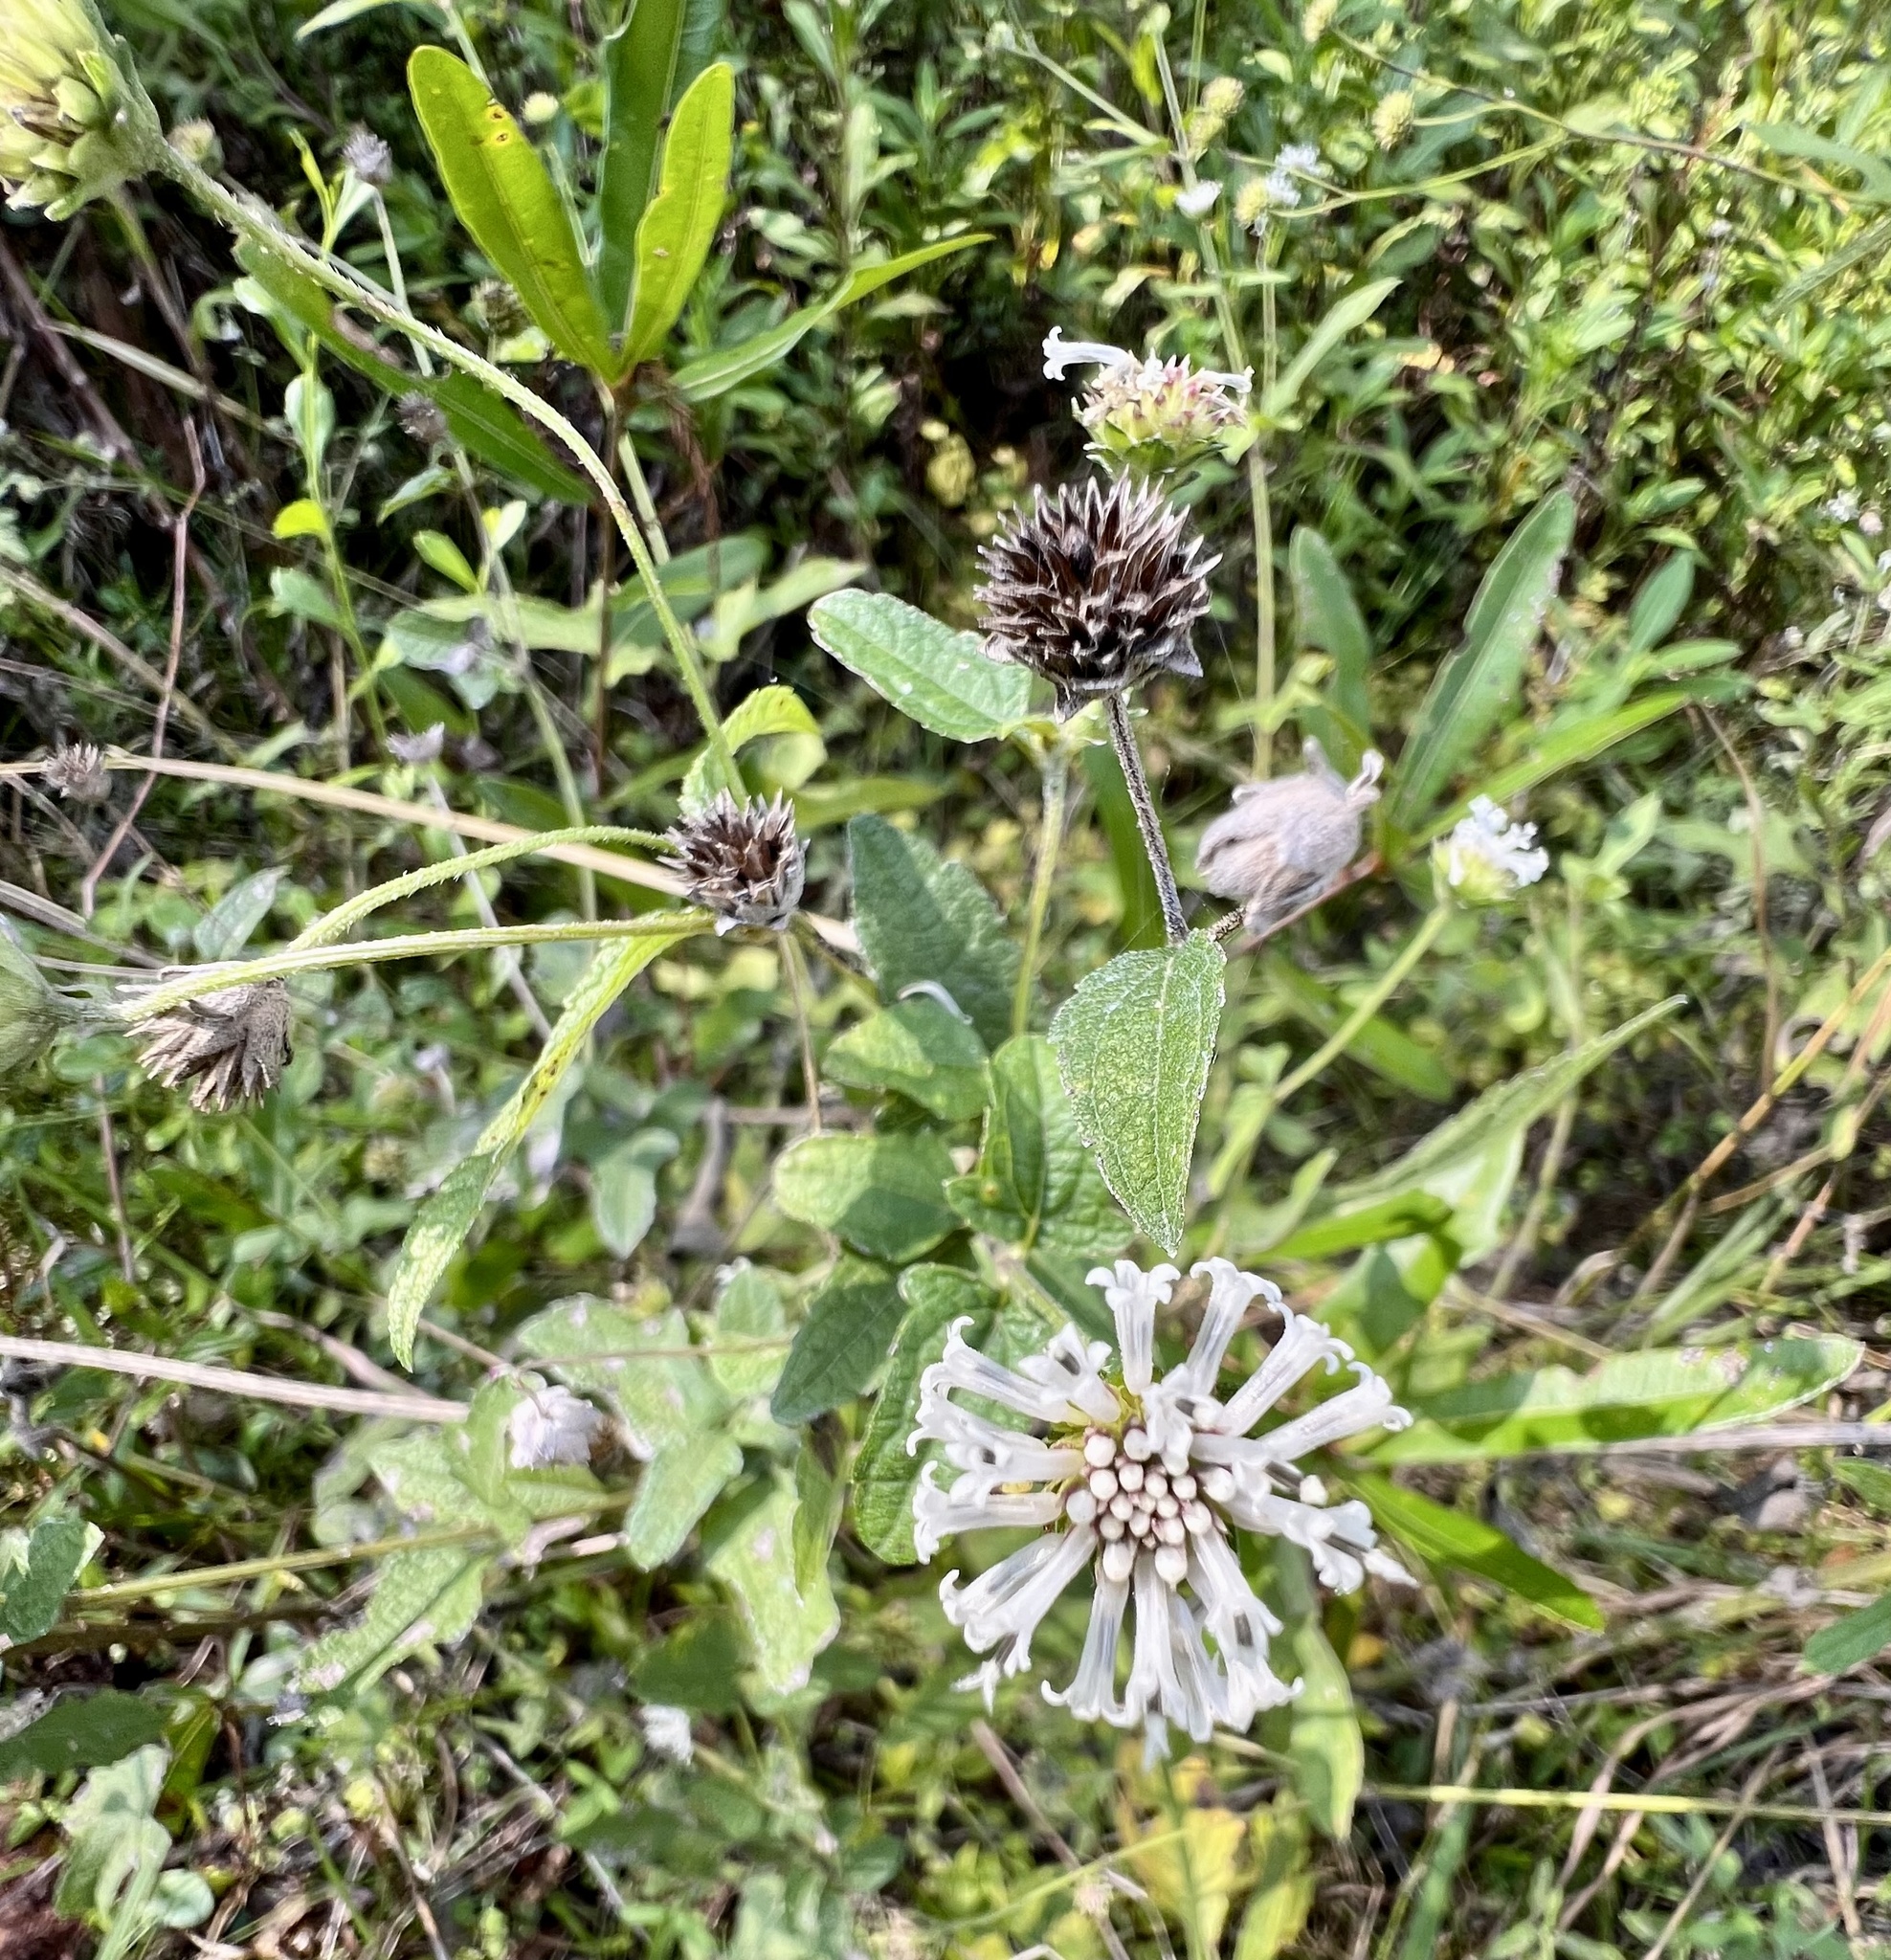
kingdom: Plantae
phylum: Tracheophyta
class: Magnoliopsida
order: Asterales
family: Asteraceae
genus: Melanthera
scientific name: Melanthera nivea
